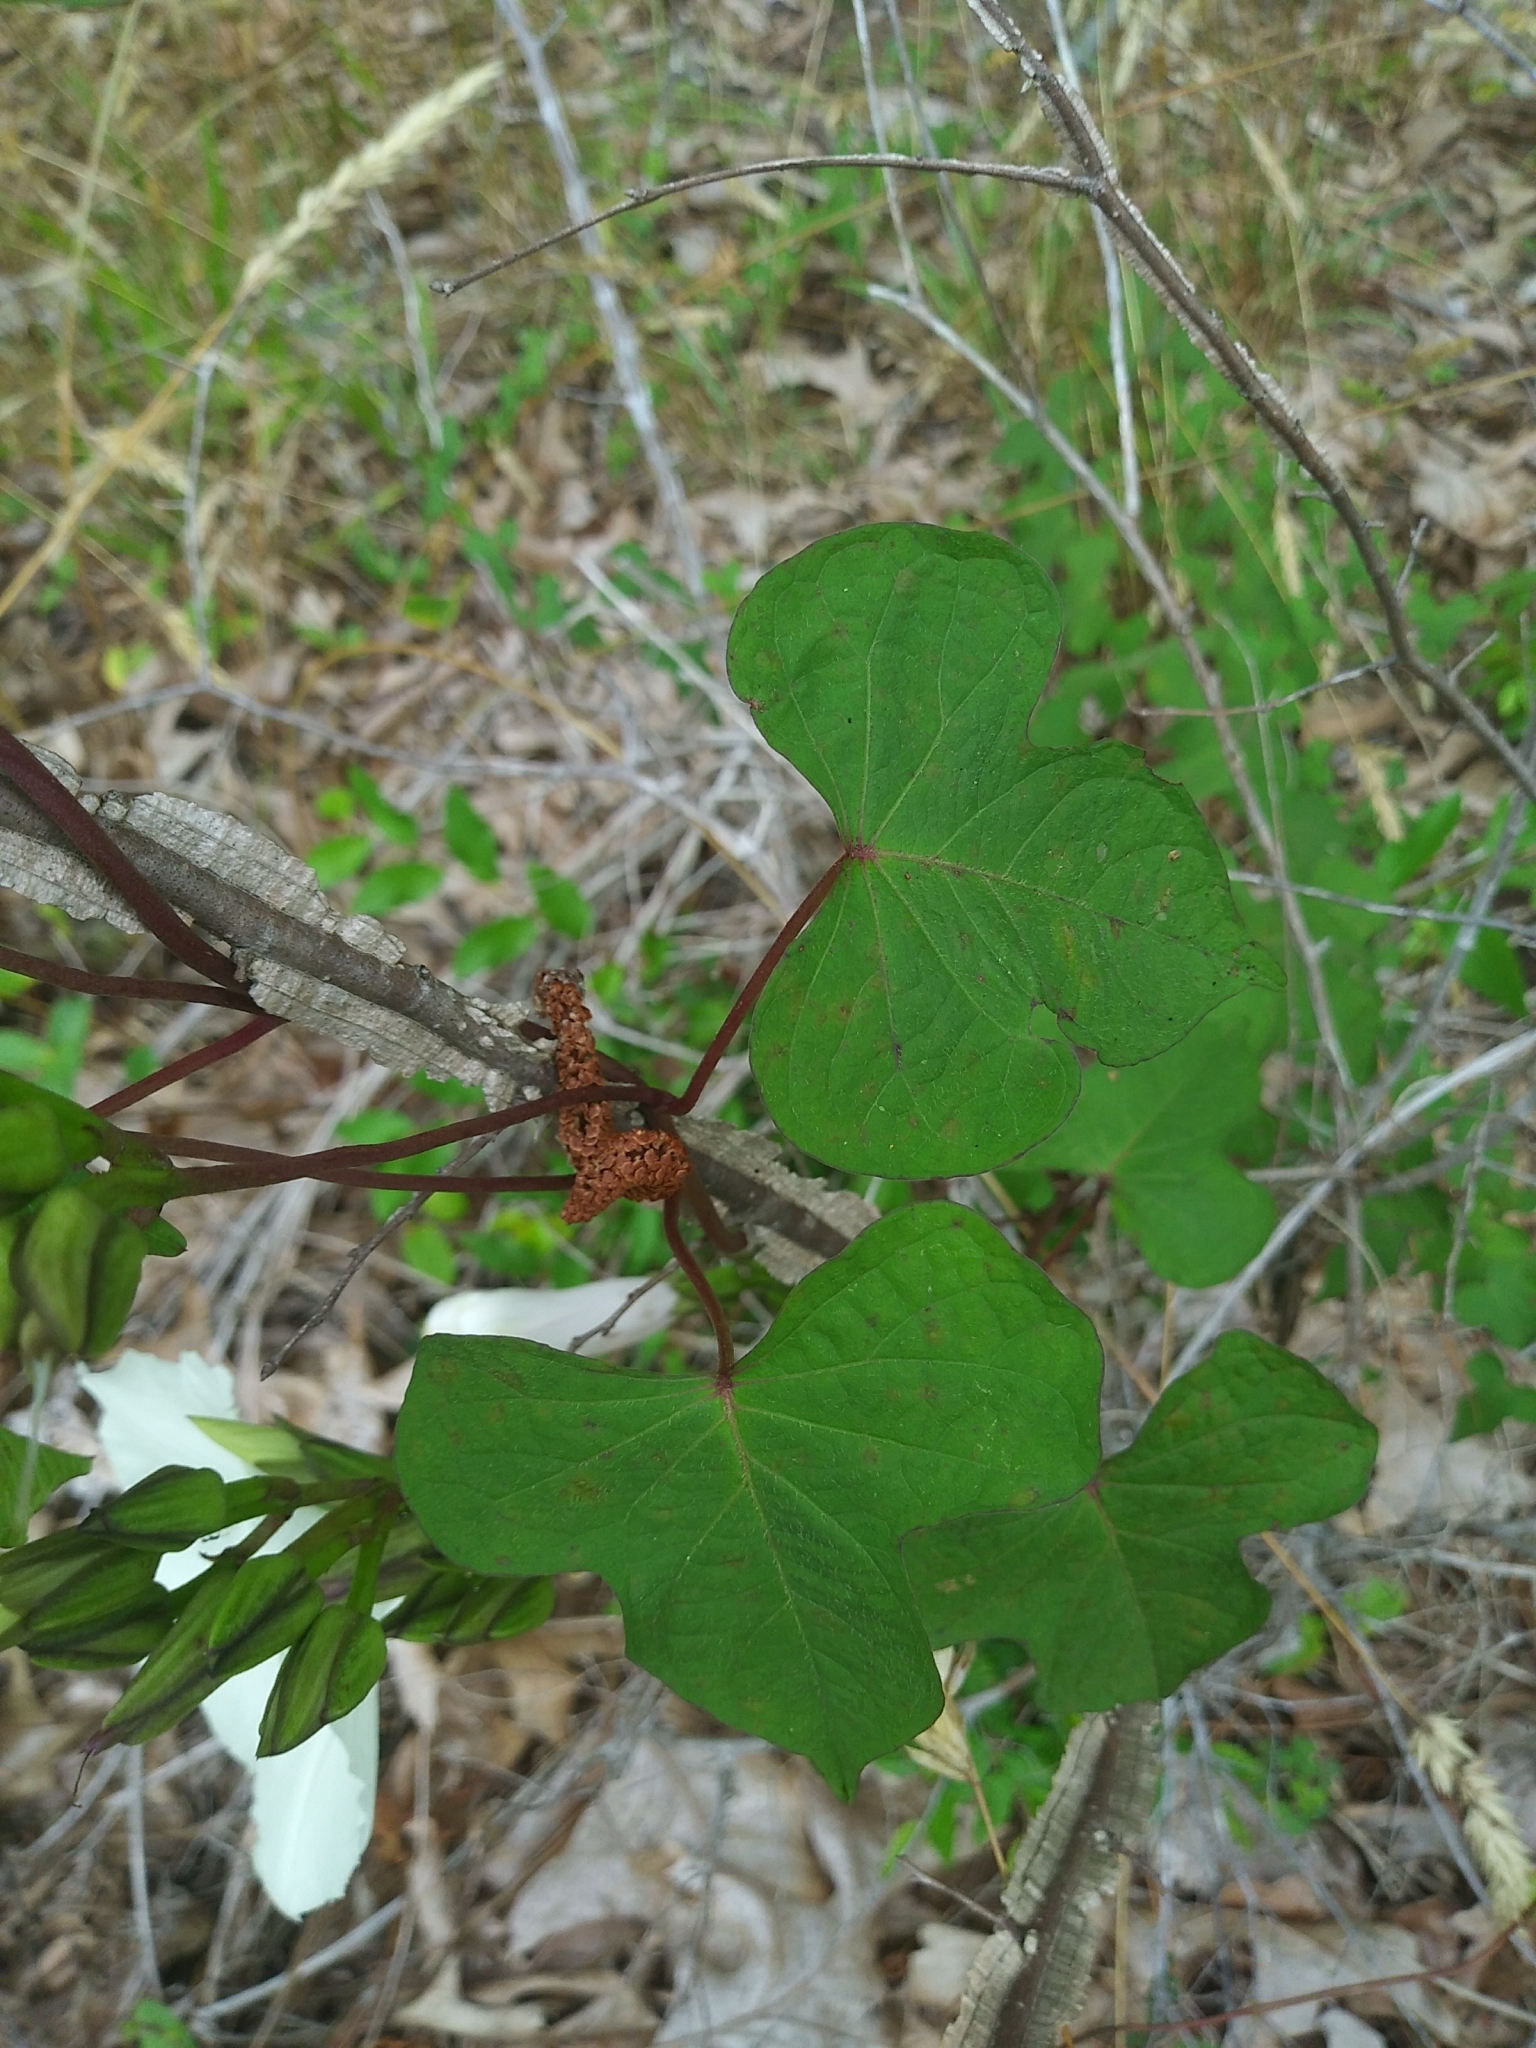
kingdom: Plantae
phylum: Tracheophyta
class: Magnoliopsida
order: Solanales
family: Convolvulaceae
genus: Ipomoea
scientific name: Ipomoea pandurata
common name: Man-of-the-earth
